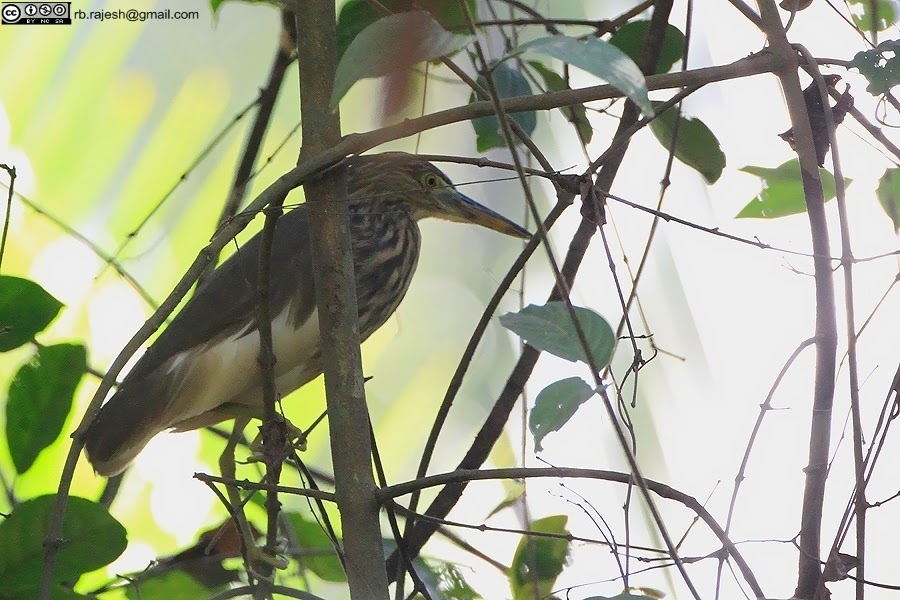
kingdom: Animalia
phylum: Chordata
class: Aves
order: Pelecaniformes
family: Ardeidae
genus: Ardeola
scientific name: Ardeola grayii
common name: Indian pond heron
